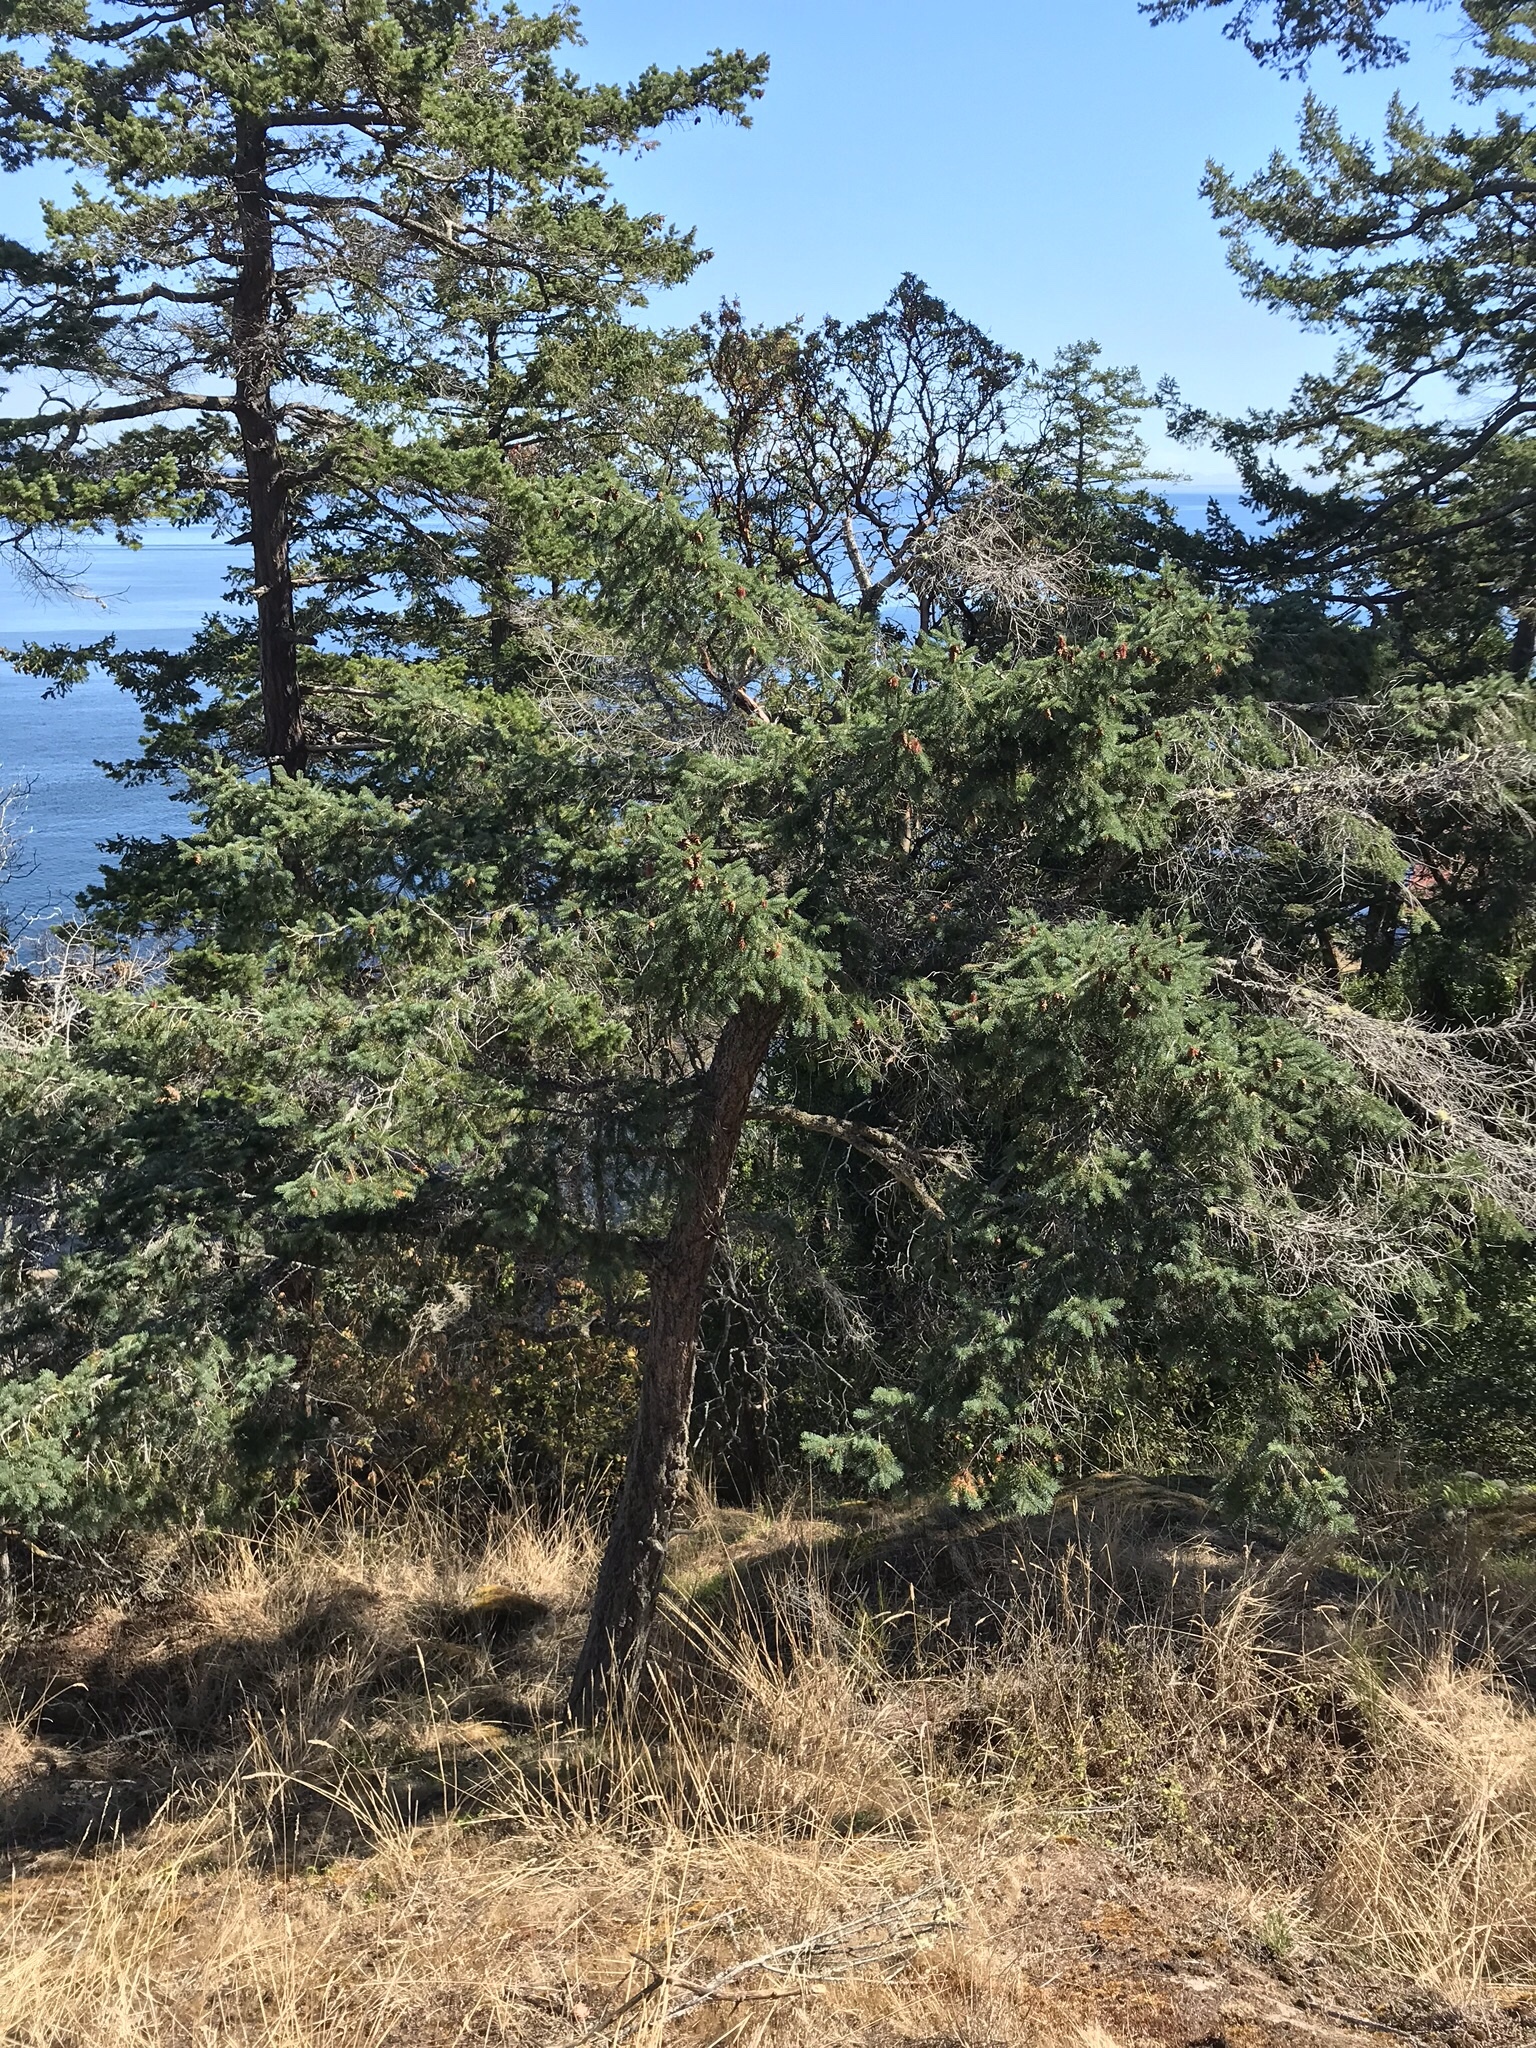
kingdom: Plantae
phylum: Tracheophyta
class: Pinopsida
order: Pinales
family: Pinaceae
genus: Pseudotsuga
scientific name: Pseudotsuga menziesii
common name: Douglas fir
